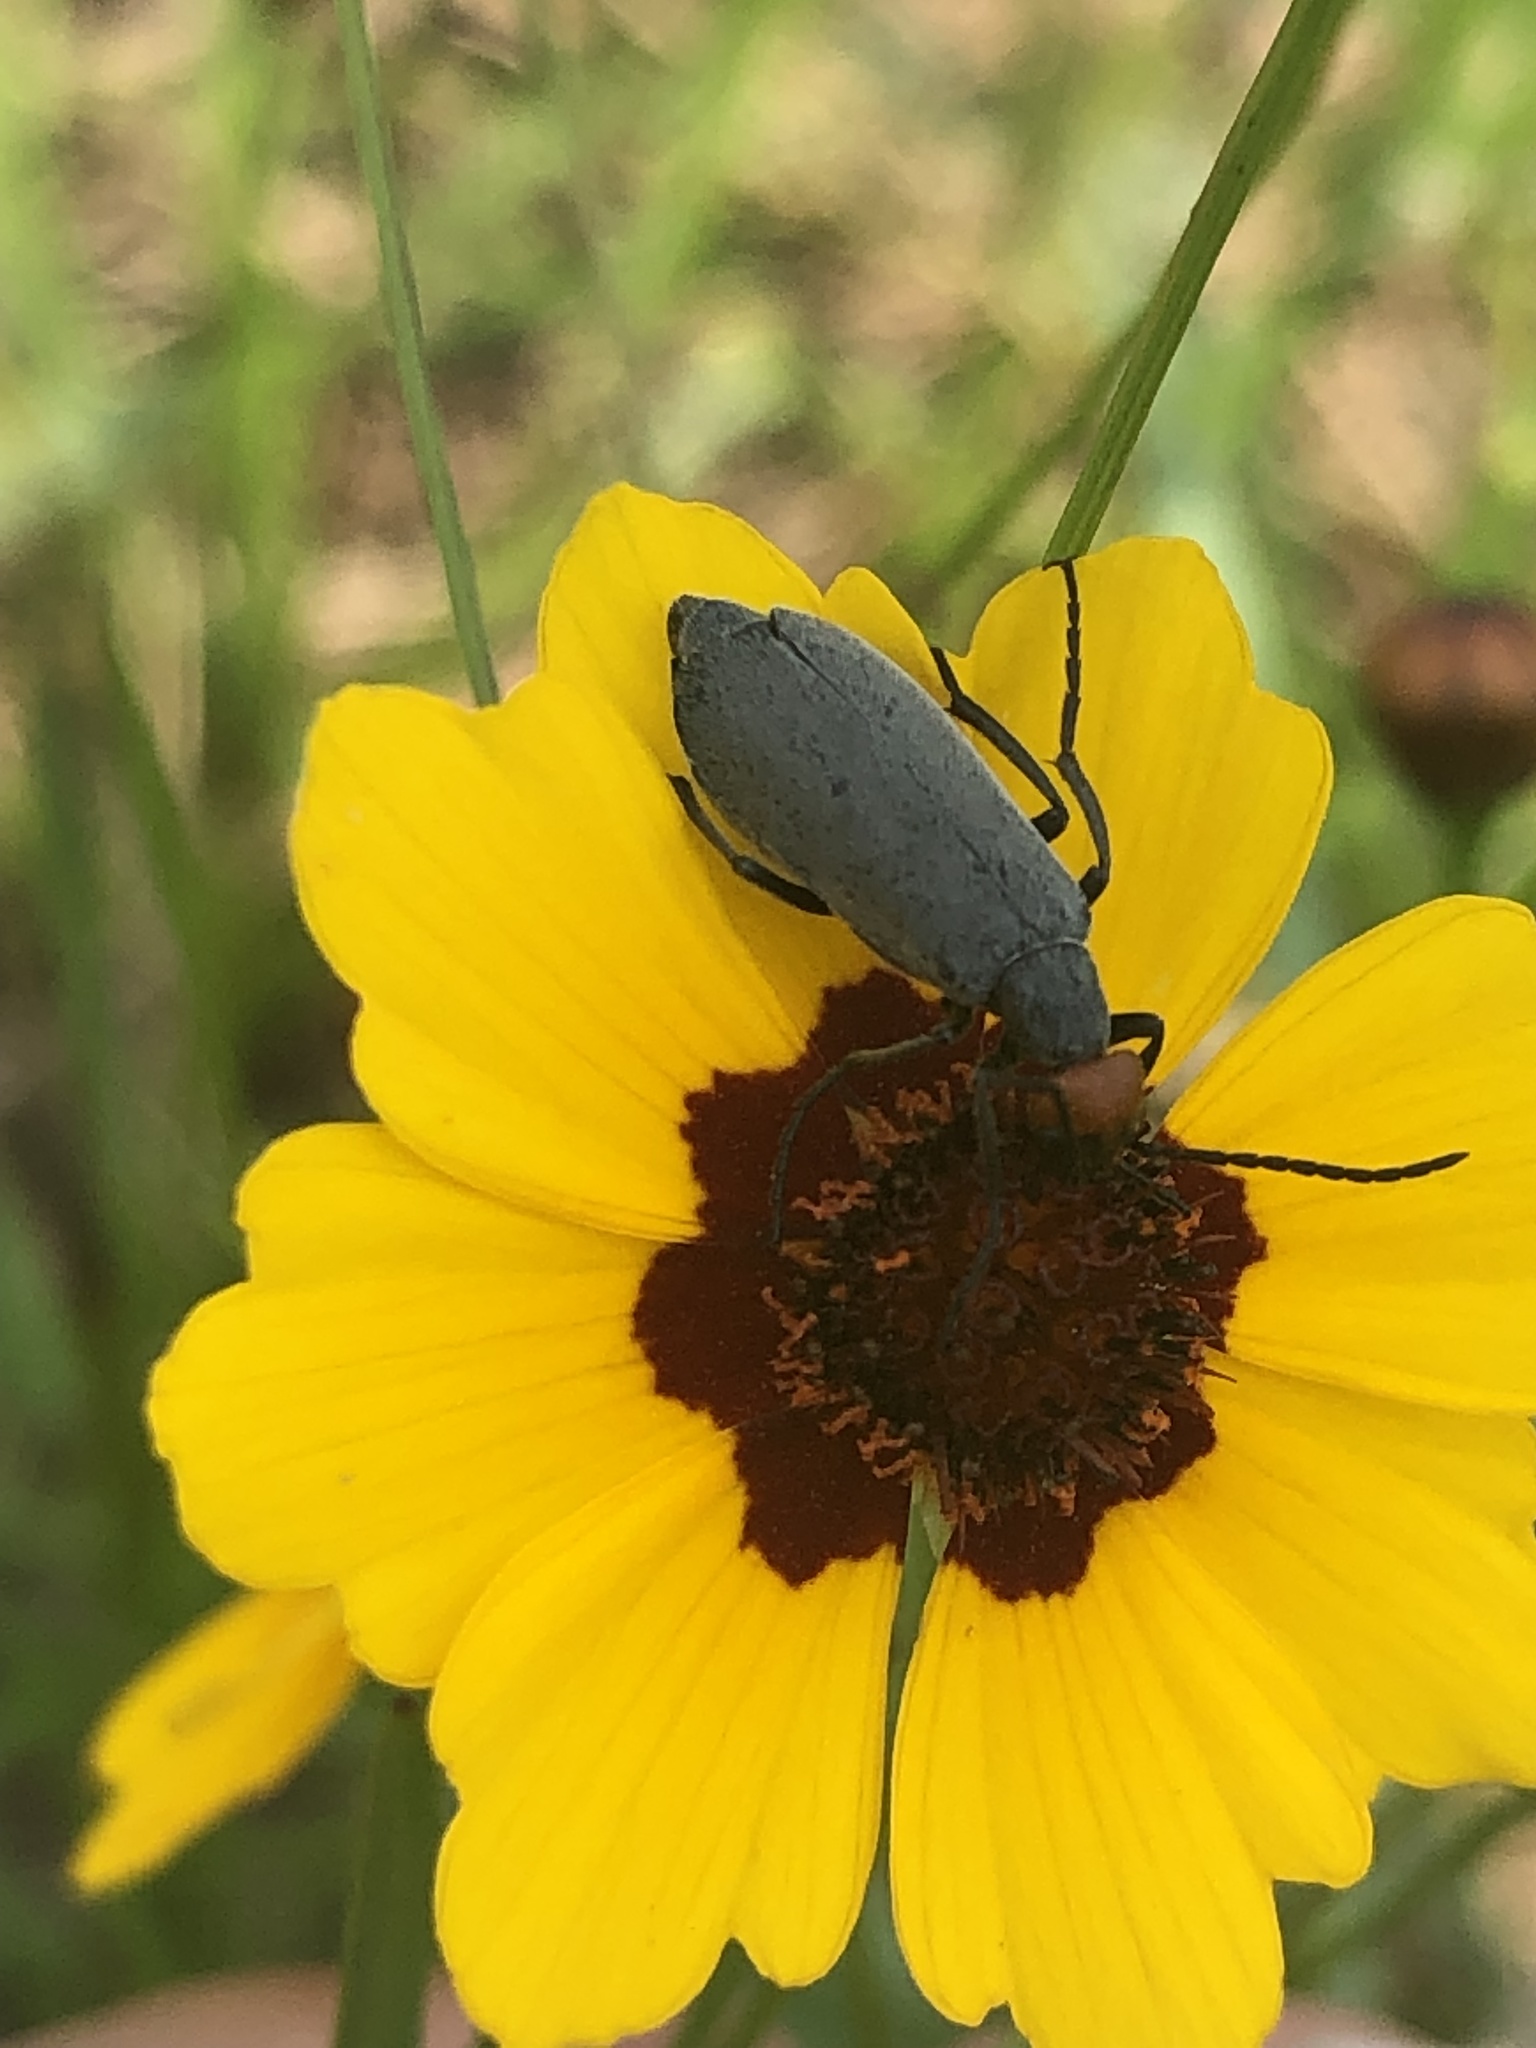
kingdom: Animalia
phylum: Arthropoda
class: Insecta
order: Coleoptera
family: Meloidae
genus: Epicauta
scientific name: Epicauta atrata
